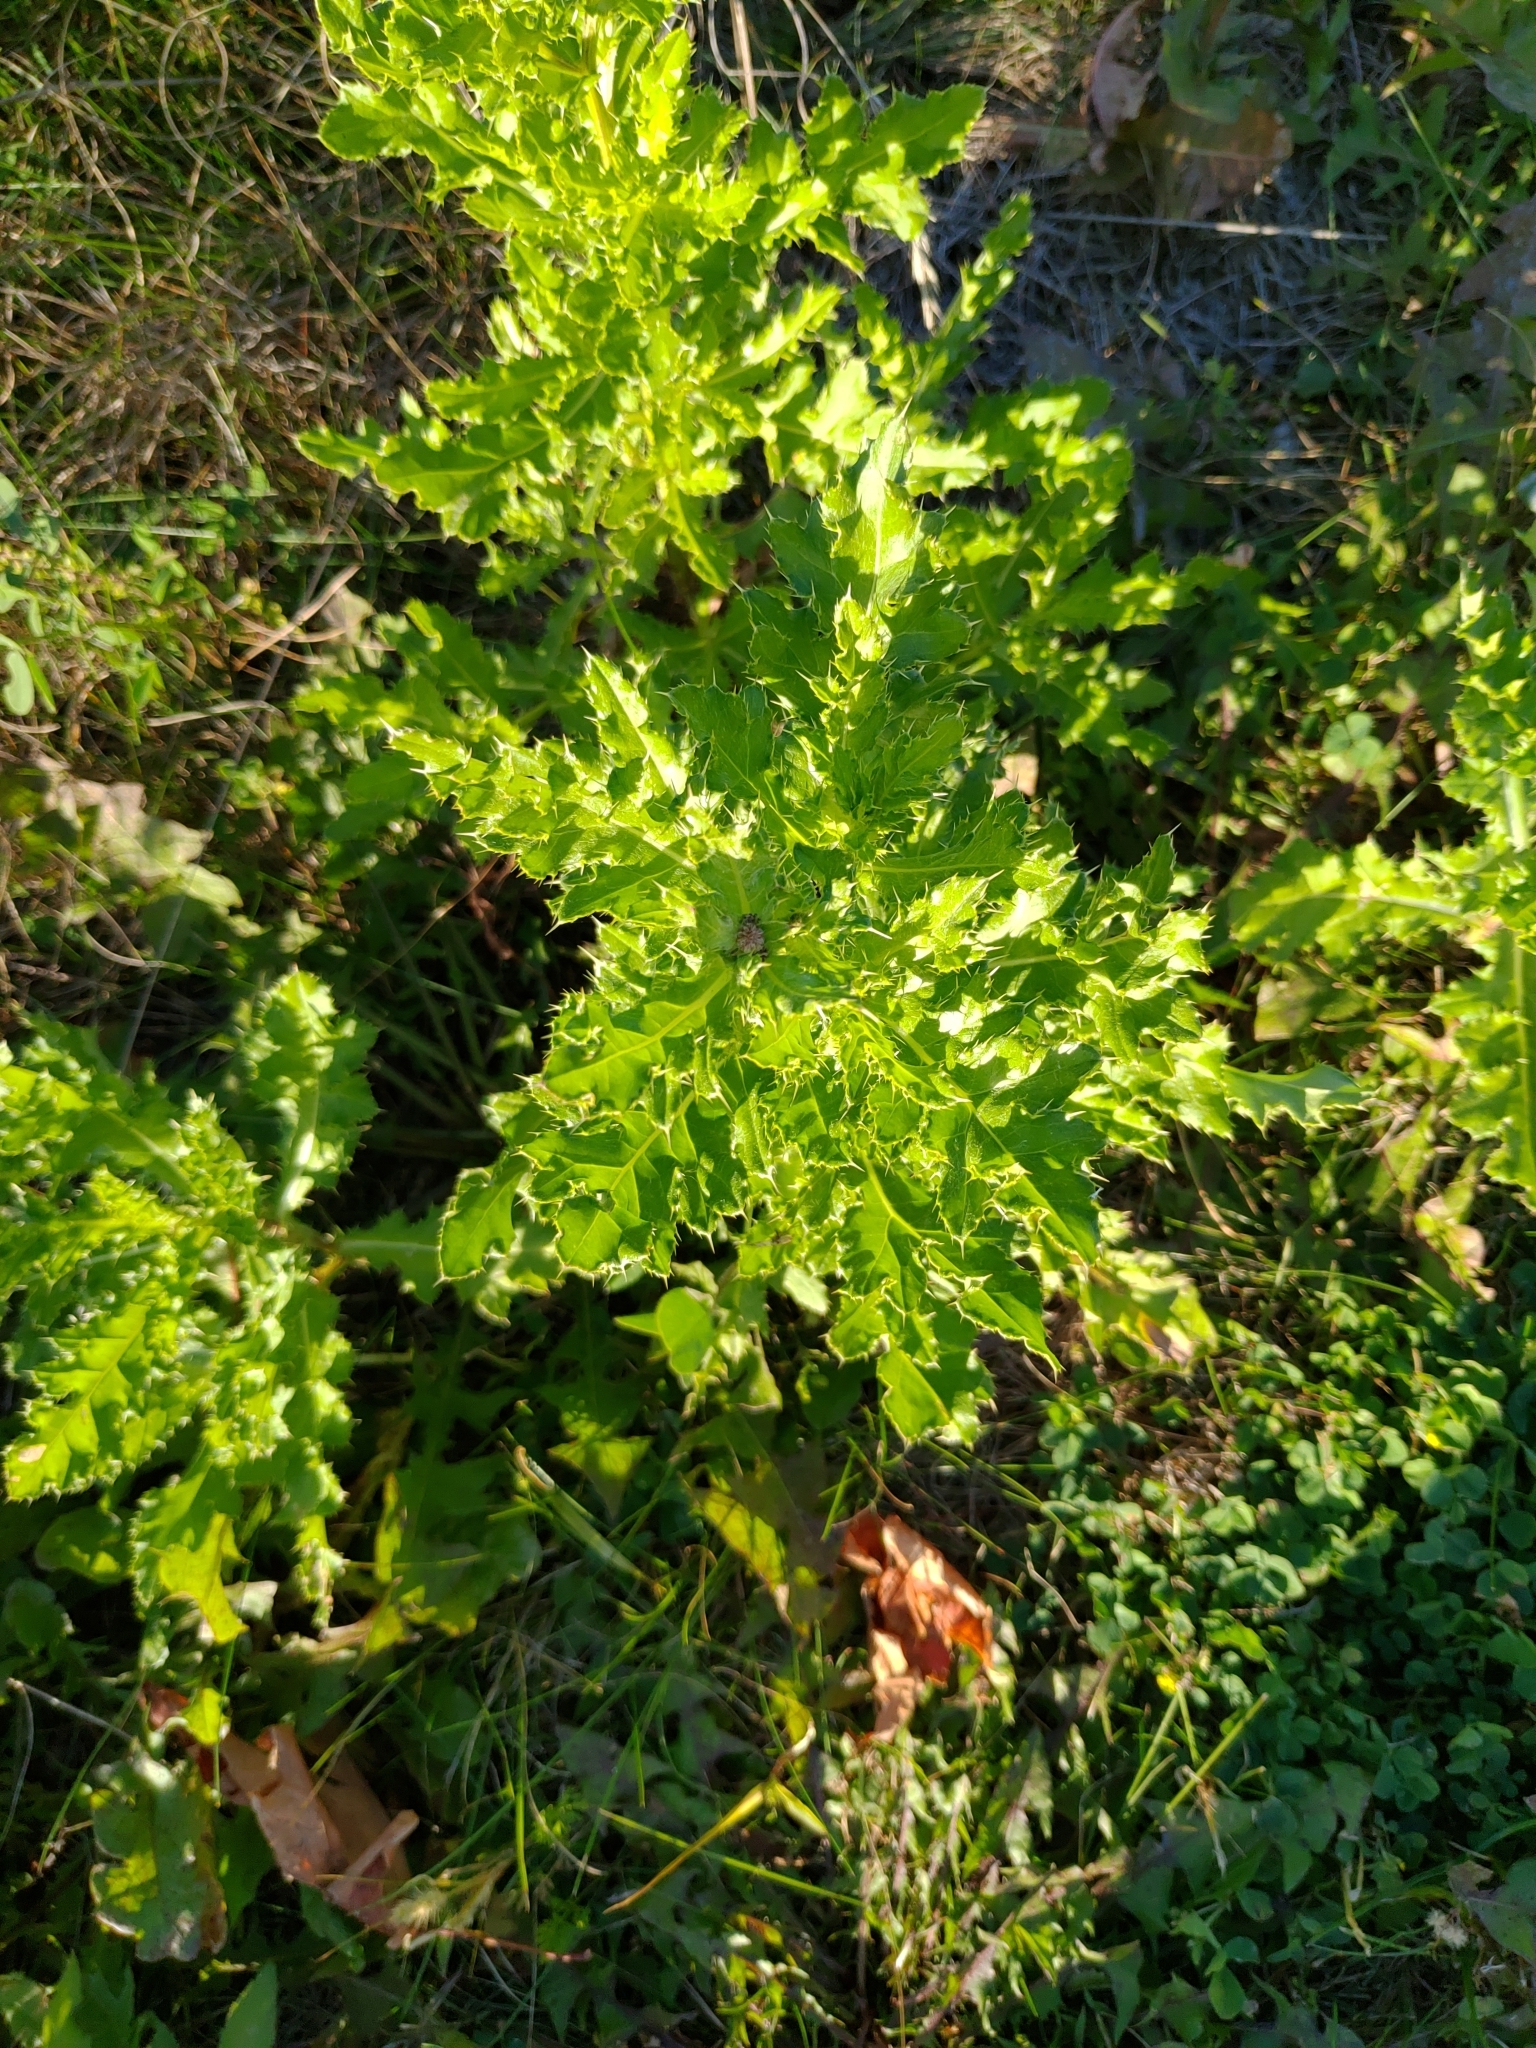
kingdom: Plantae
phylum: Tracheophyta
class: Magnoliopsida
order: Asterales
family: Asteraceae
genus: Cirsium
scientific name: Cirsium arvense
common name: Creeping thistle
